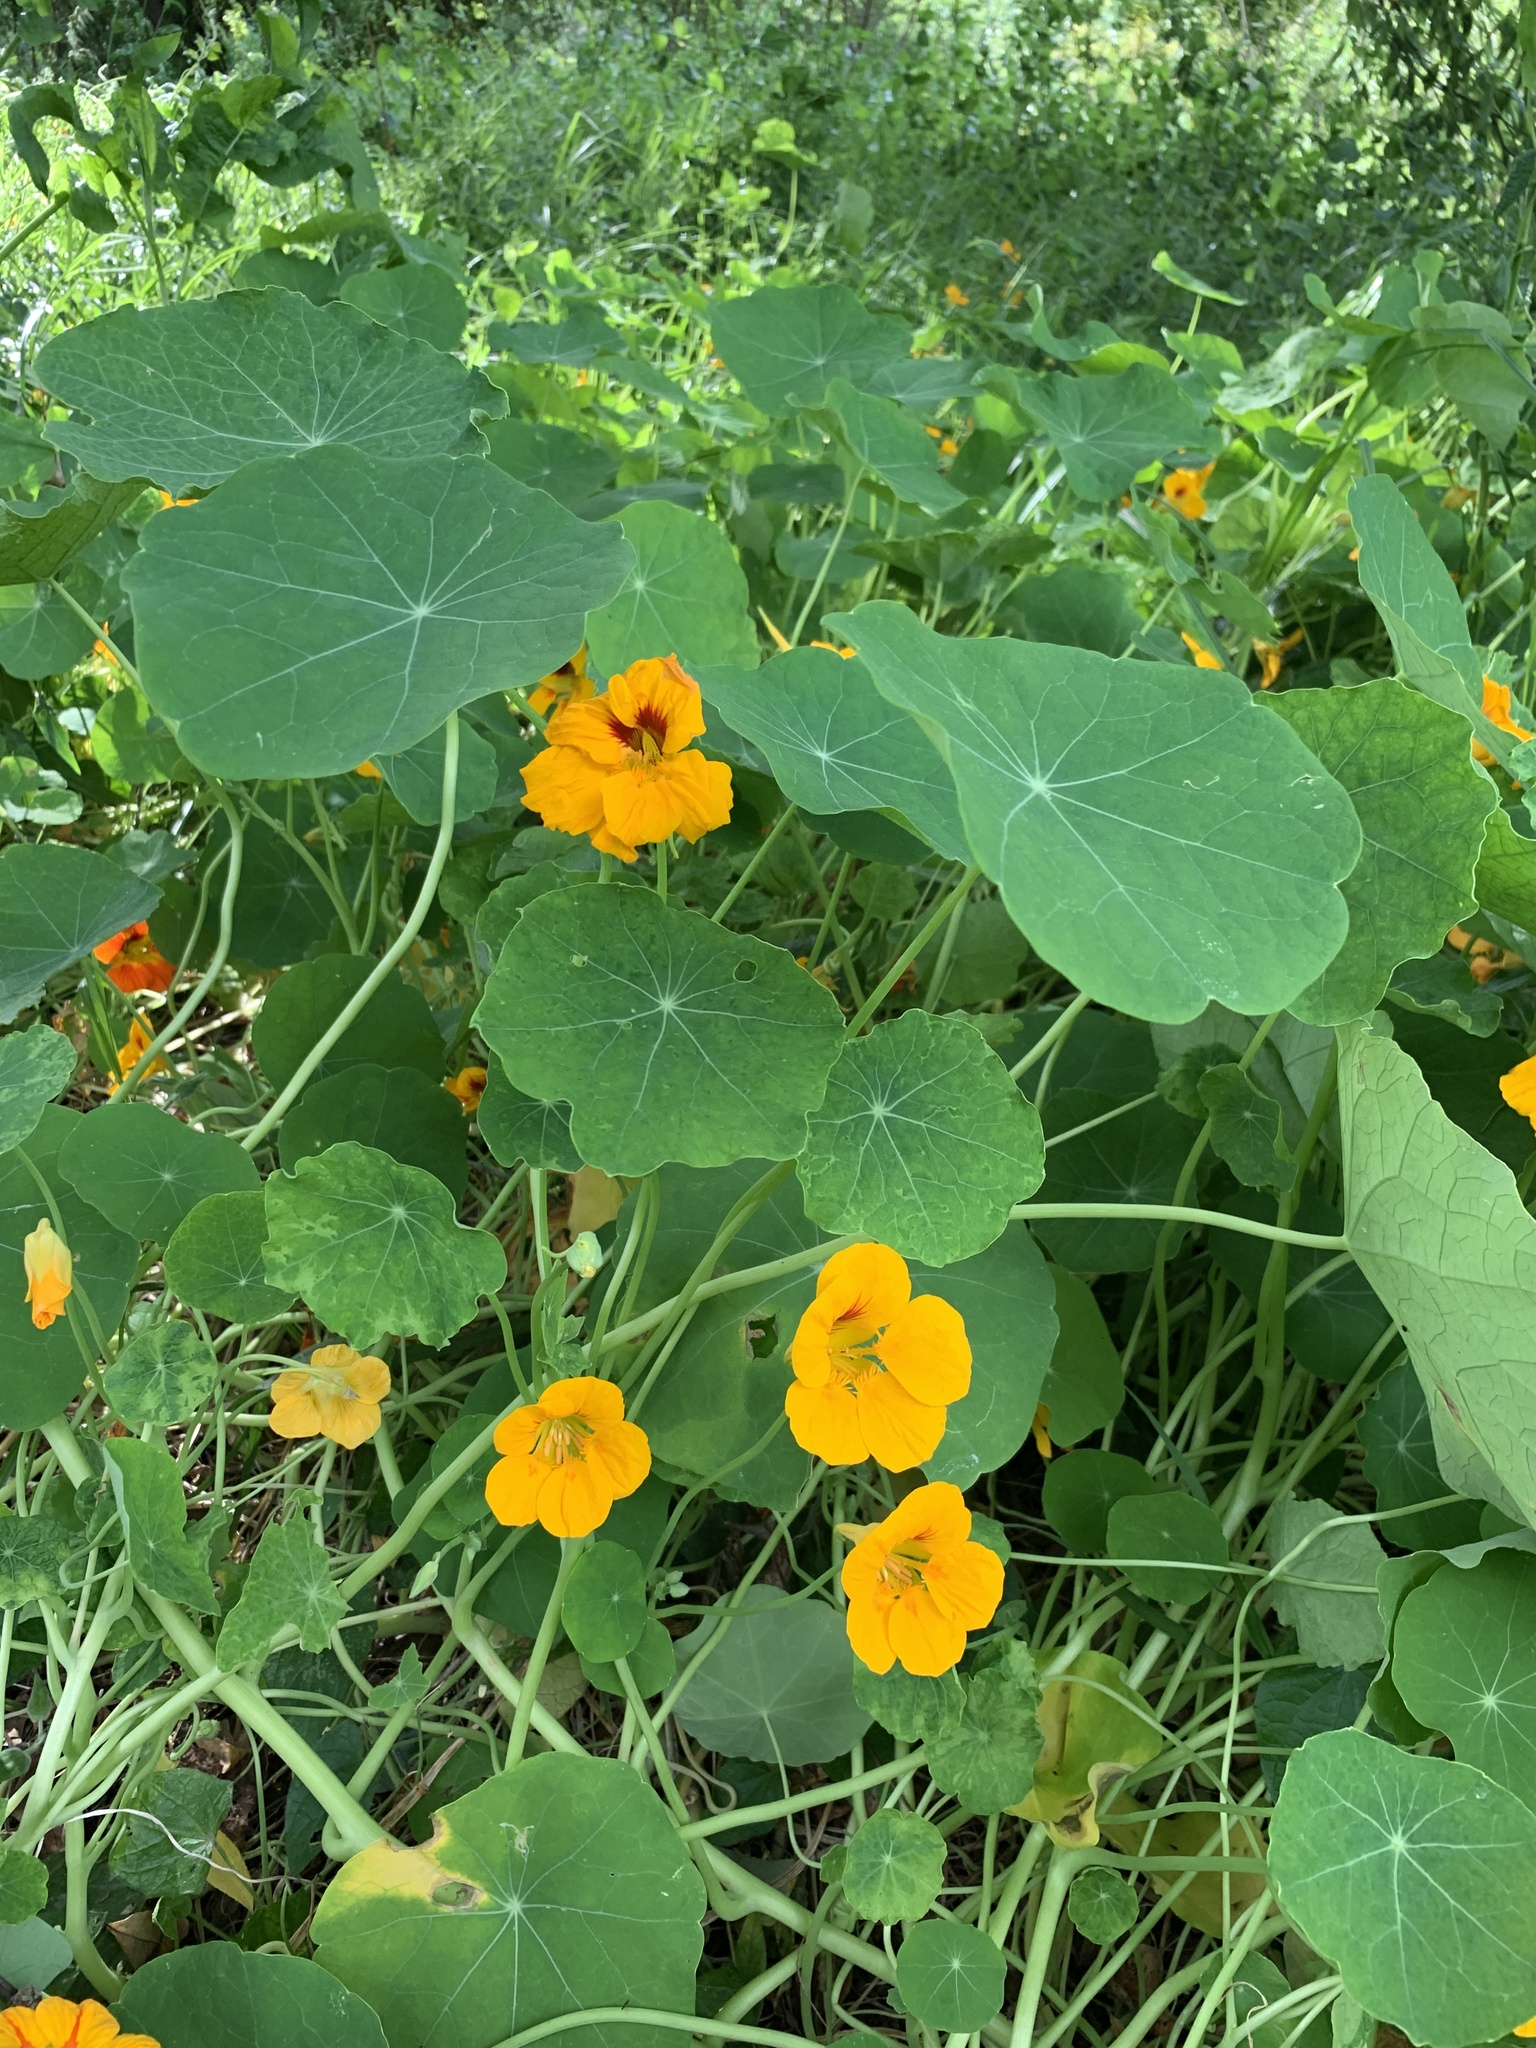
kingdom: Plantae
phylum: Tracheophyta
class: Magnoliopsida
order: Brassicales
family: Tropaeolaceae
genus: Tropaeolum
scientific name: Tropaeolum majus
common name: Nasturtium
